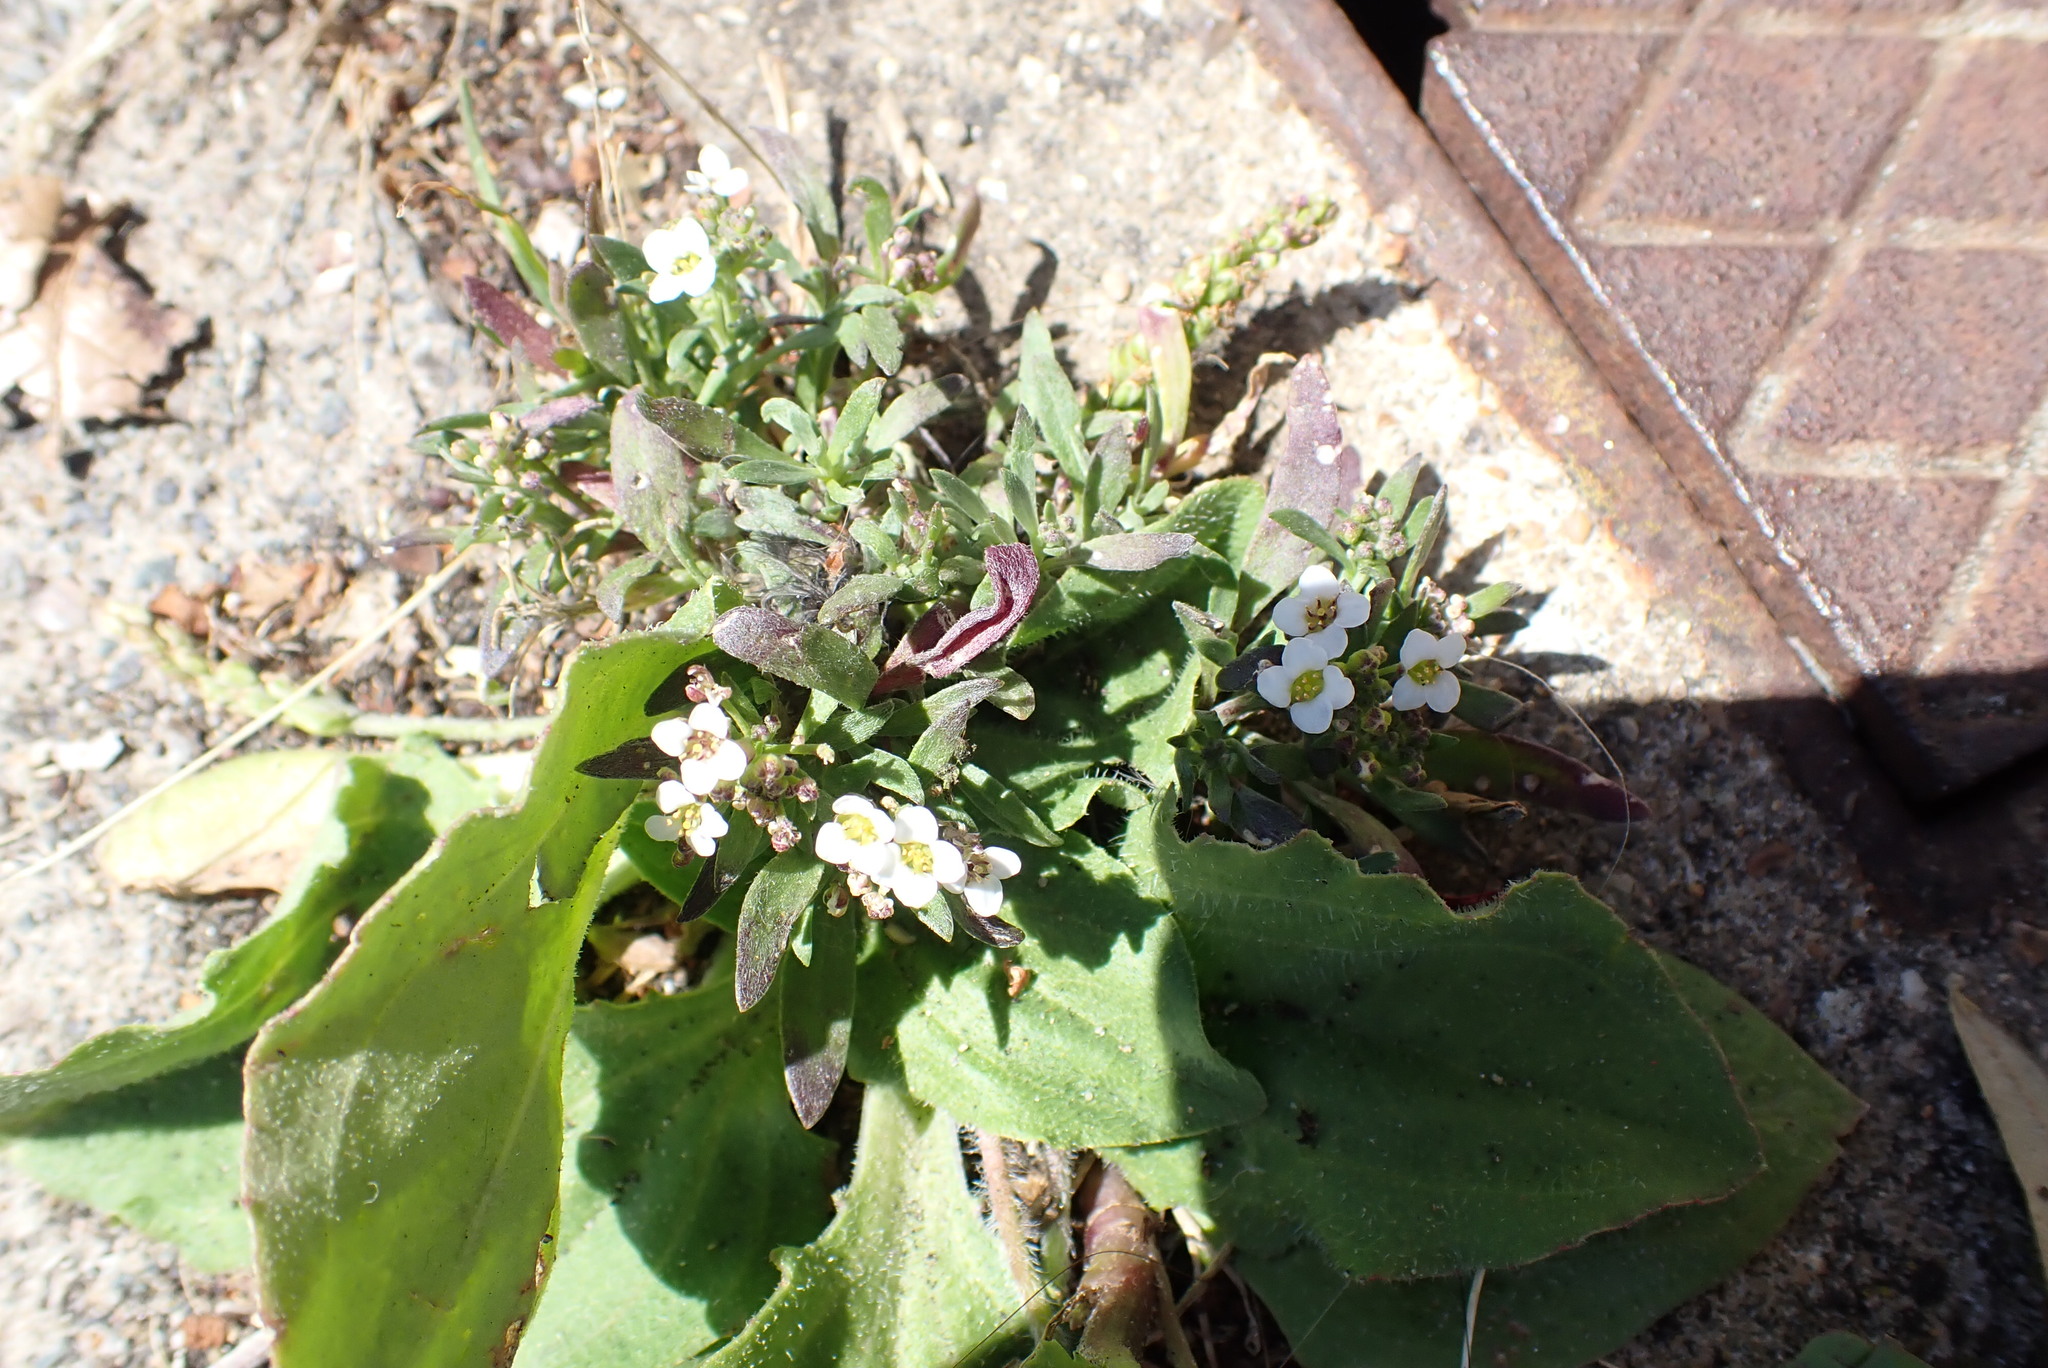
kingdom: Plantae
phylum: Tracheophyta
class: Magnoliopsida
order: Brassicales
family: Brassicaceae
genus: Lobularia
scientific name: Lobularia maritima
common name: Sweet alison
